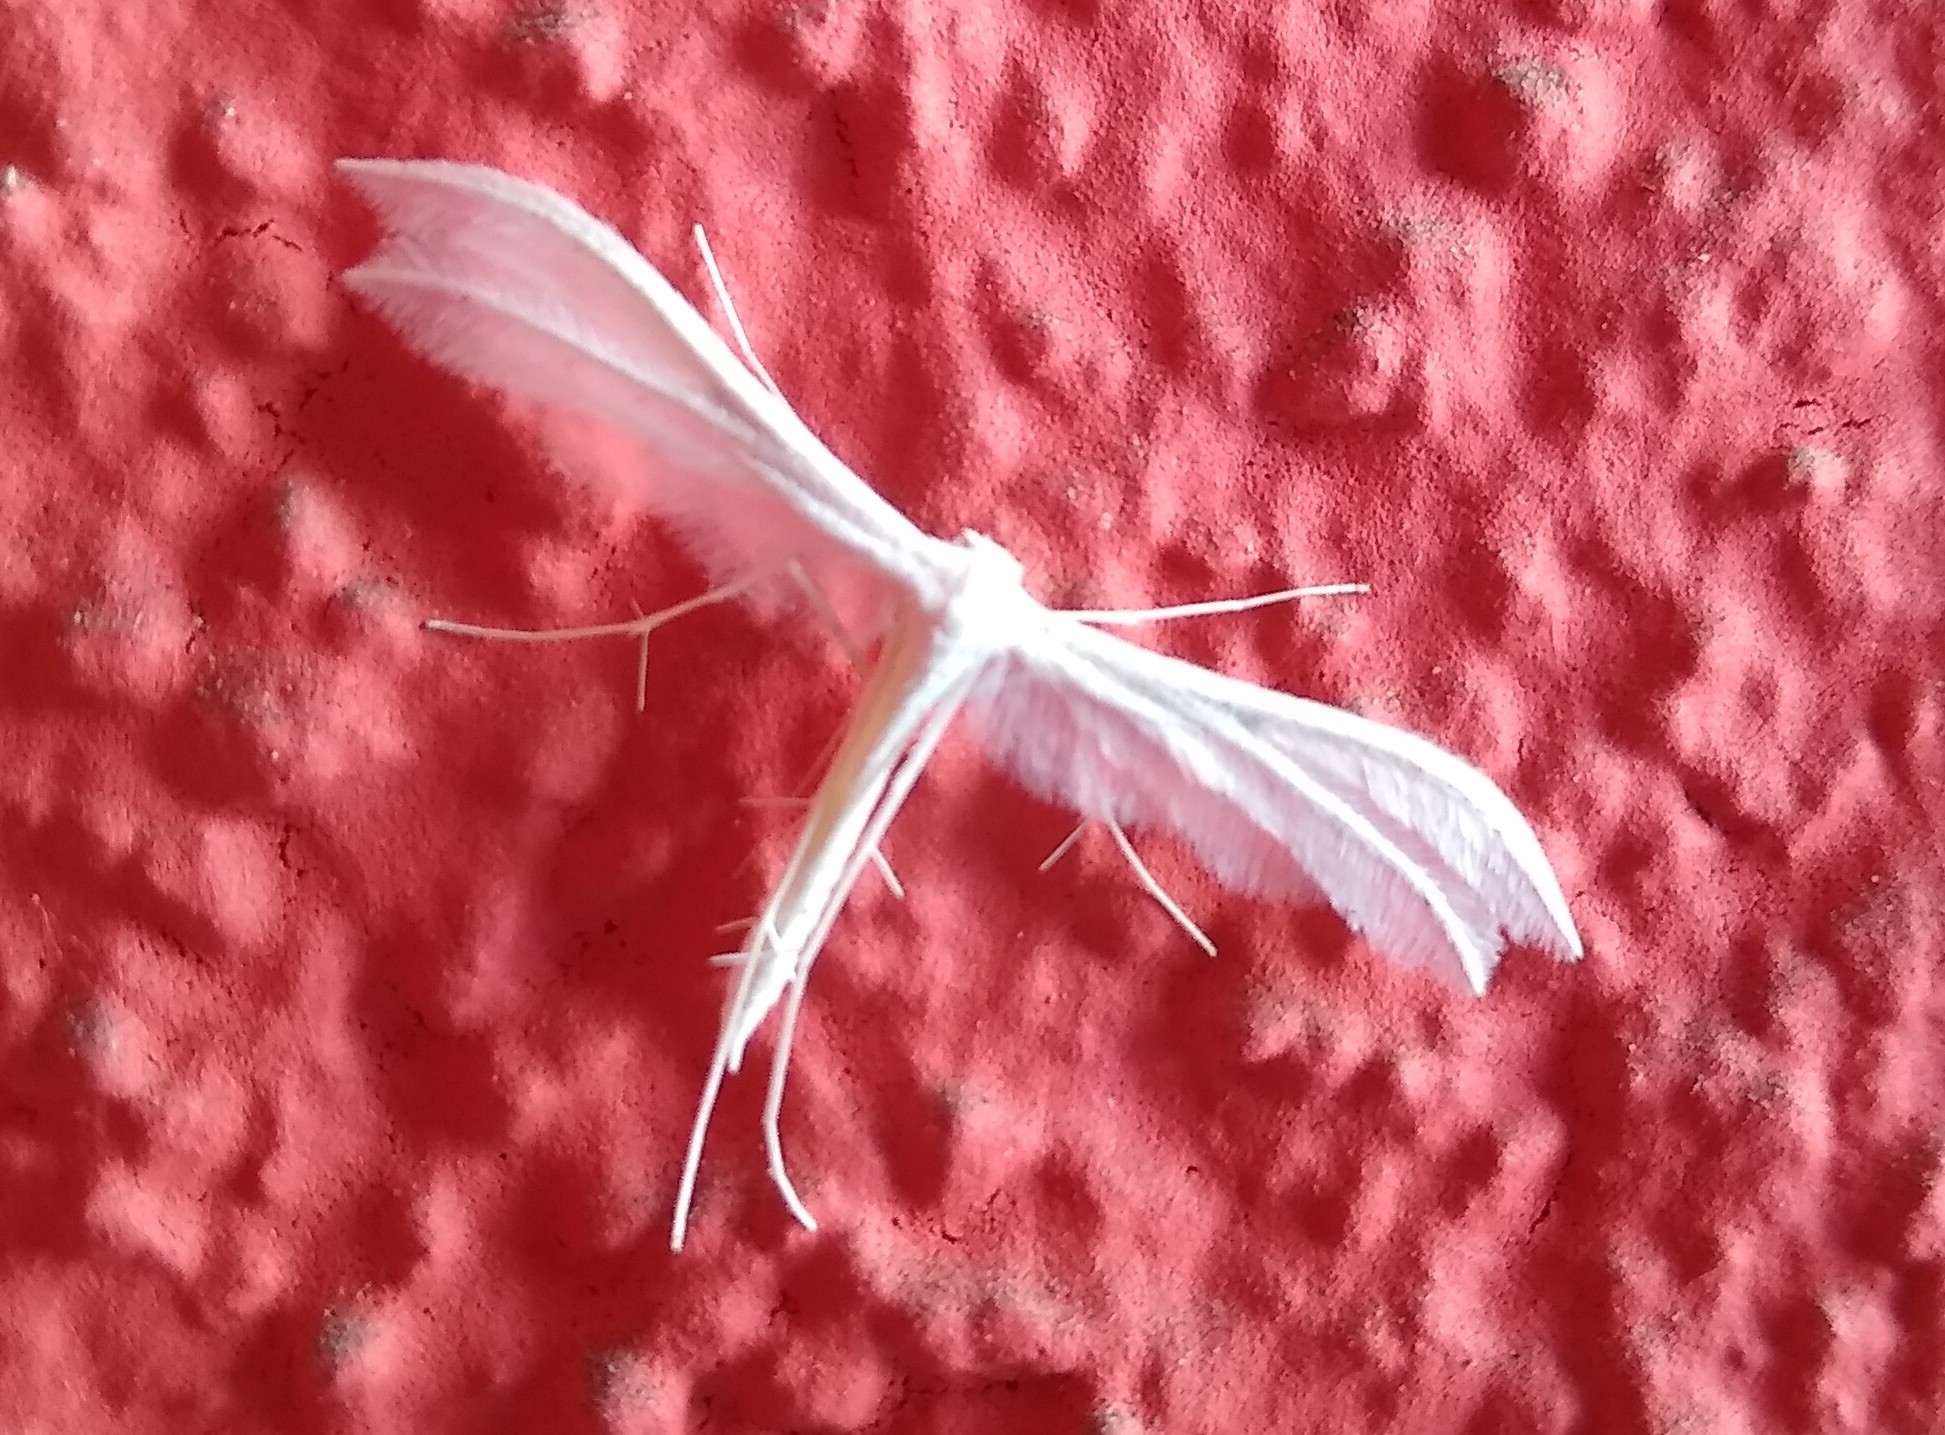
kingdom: Animalia
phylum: Arthropoda
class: Insecta
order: Lepidoptera
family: Pterophoridae
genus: Pterophorus
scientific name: Pterophorus pentadactyla
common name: White plume moth
